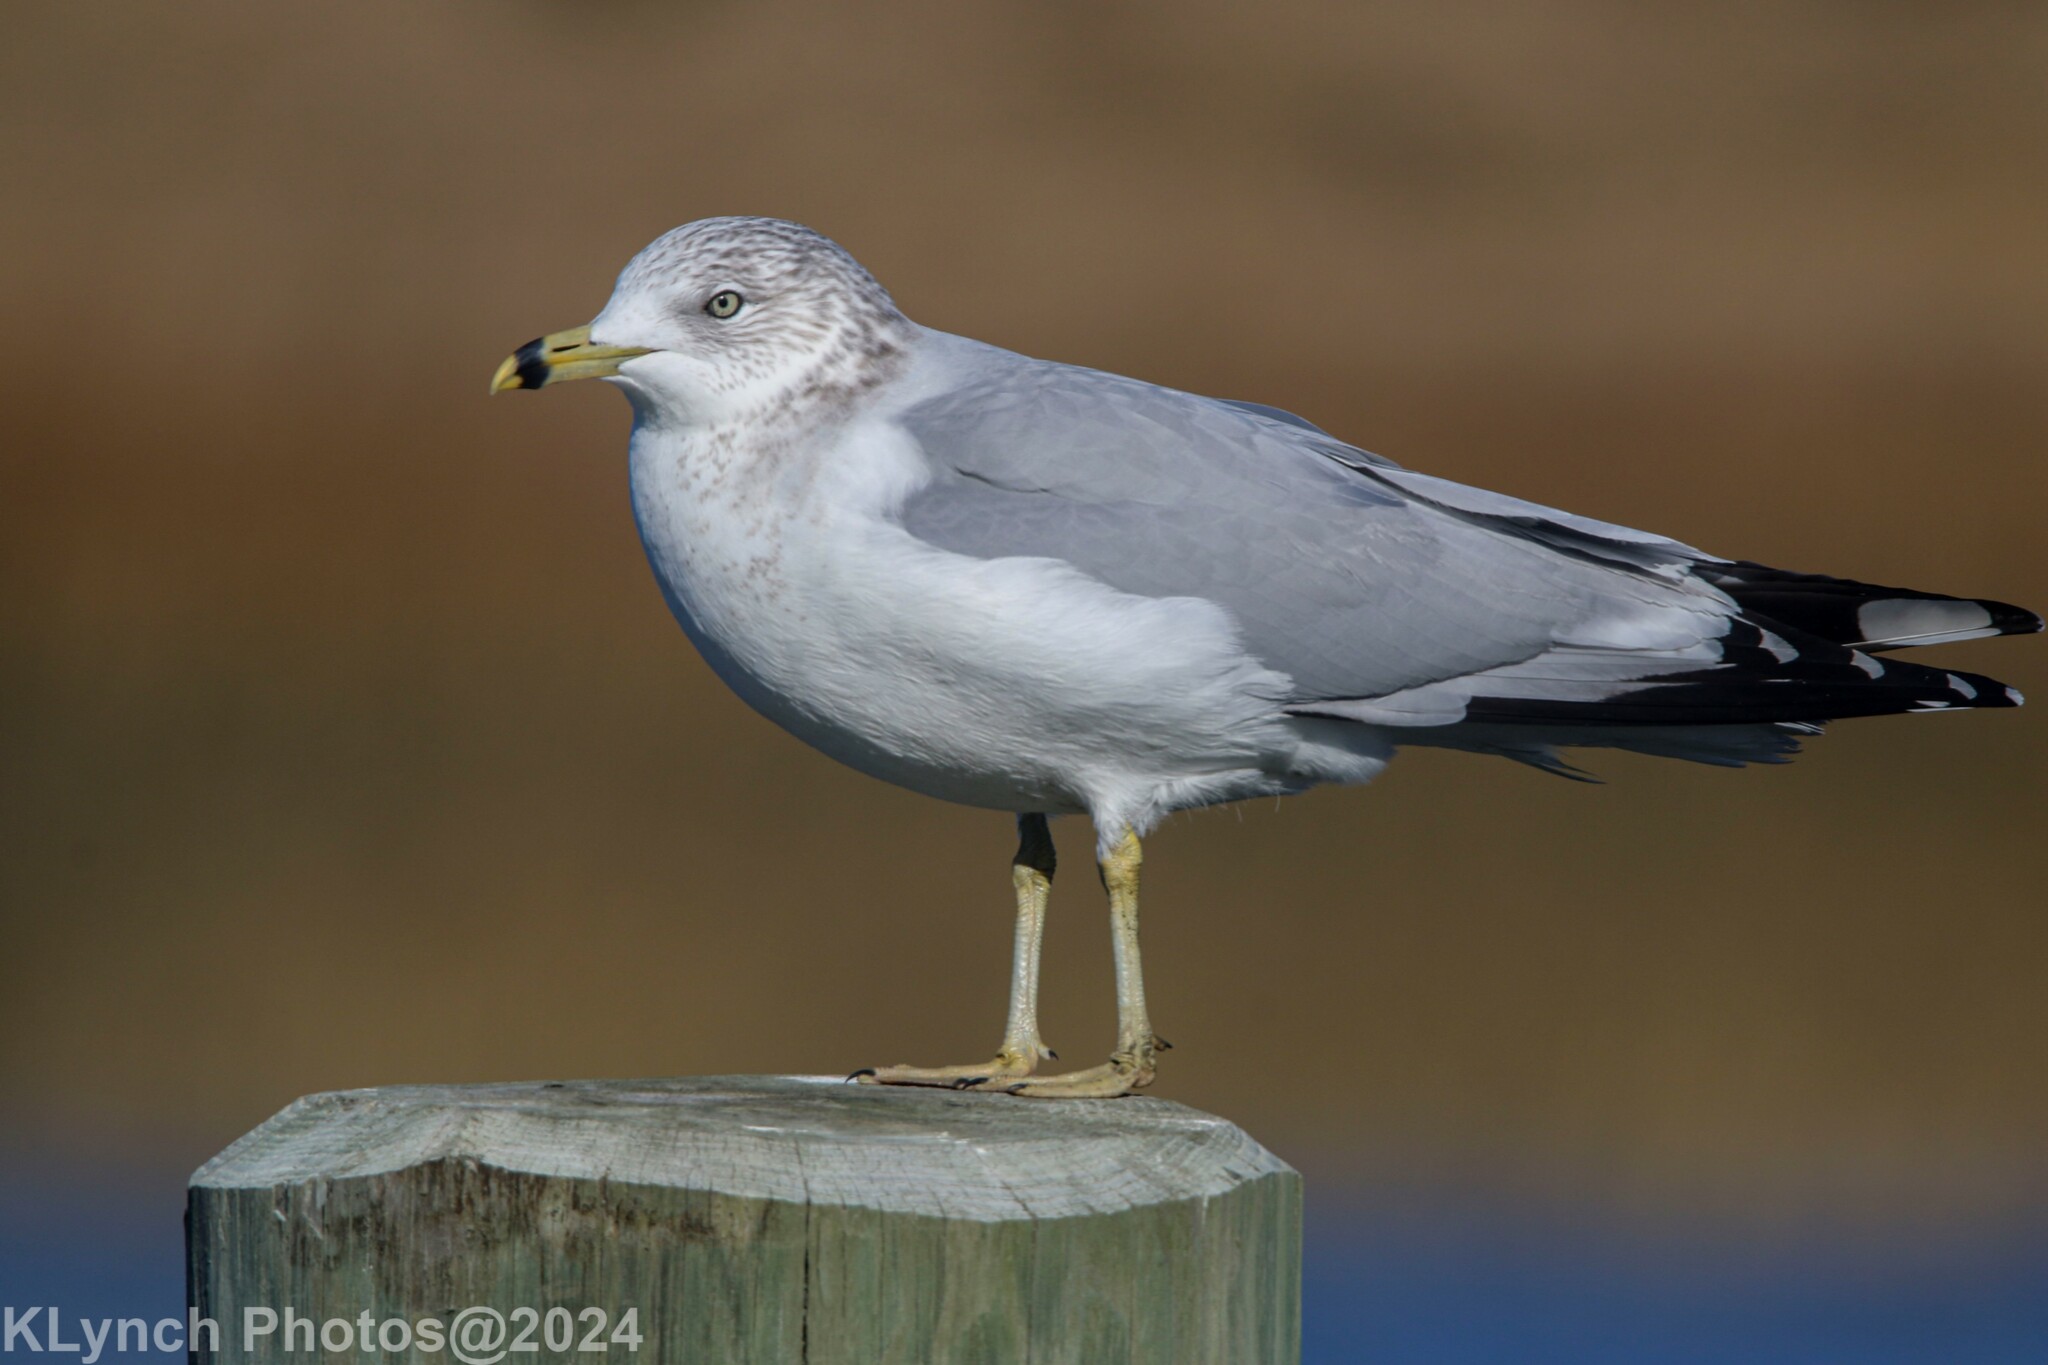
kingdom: Animalia
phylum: Chordata
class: Aves
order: Charadriiformes
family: Laridae
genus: Larus
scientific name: Larus delawarensis
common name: Ring-billed gull
